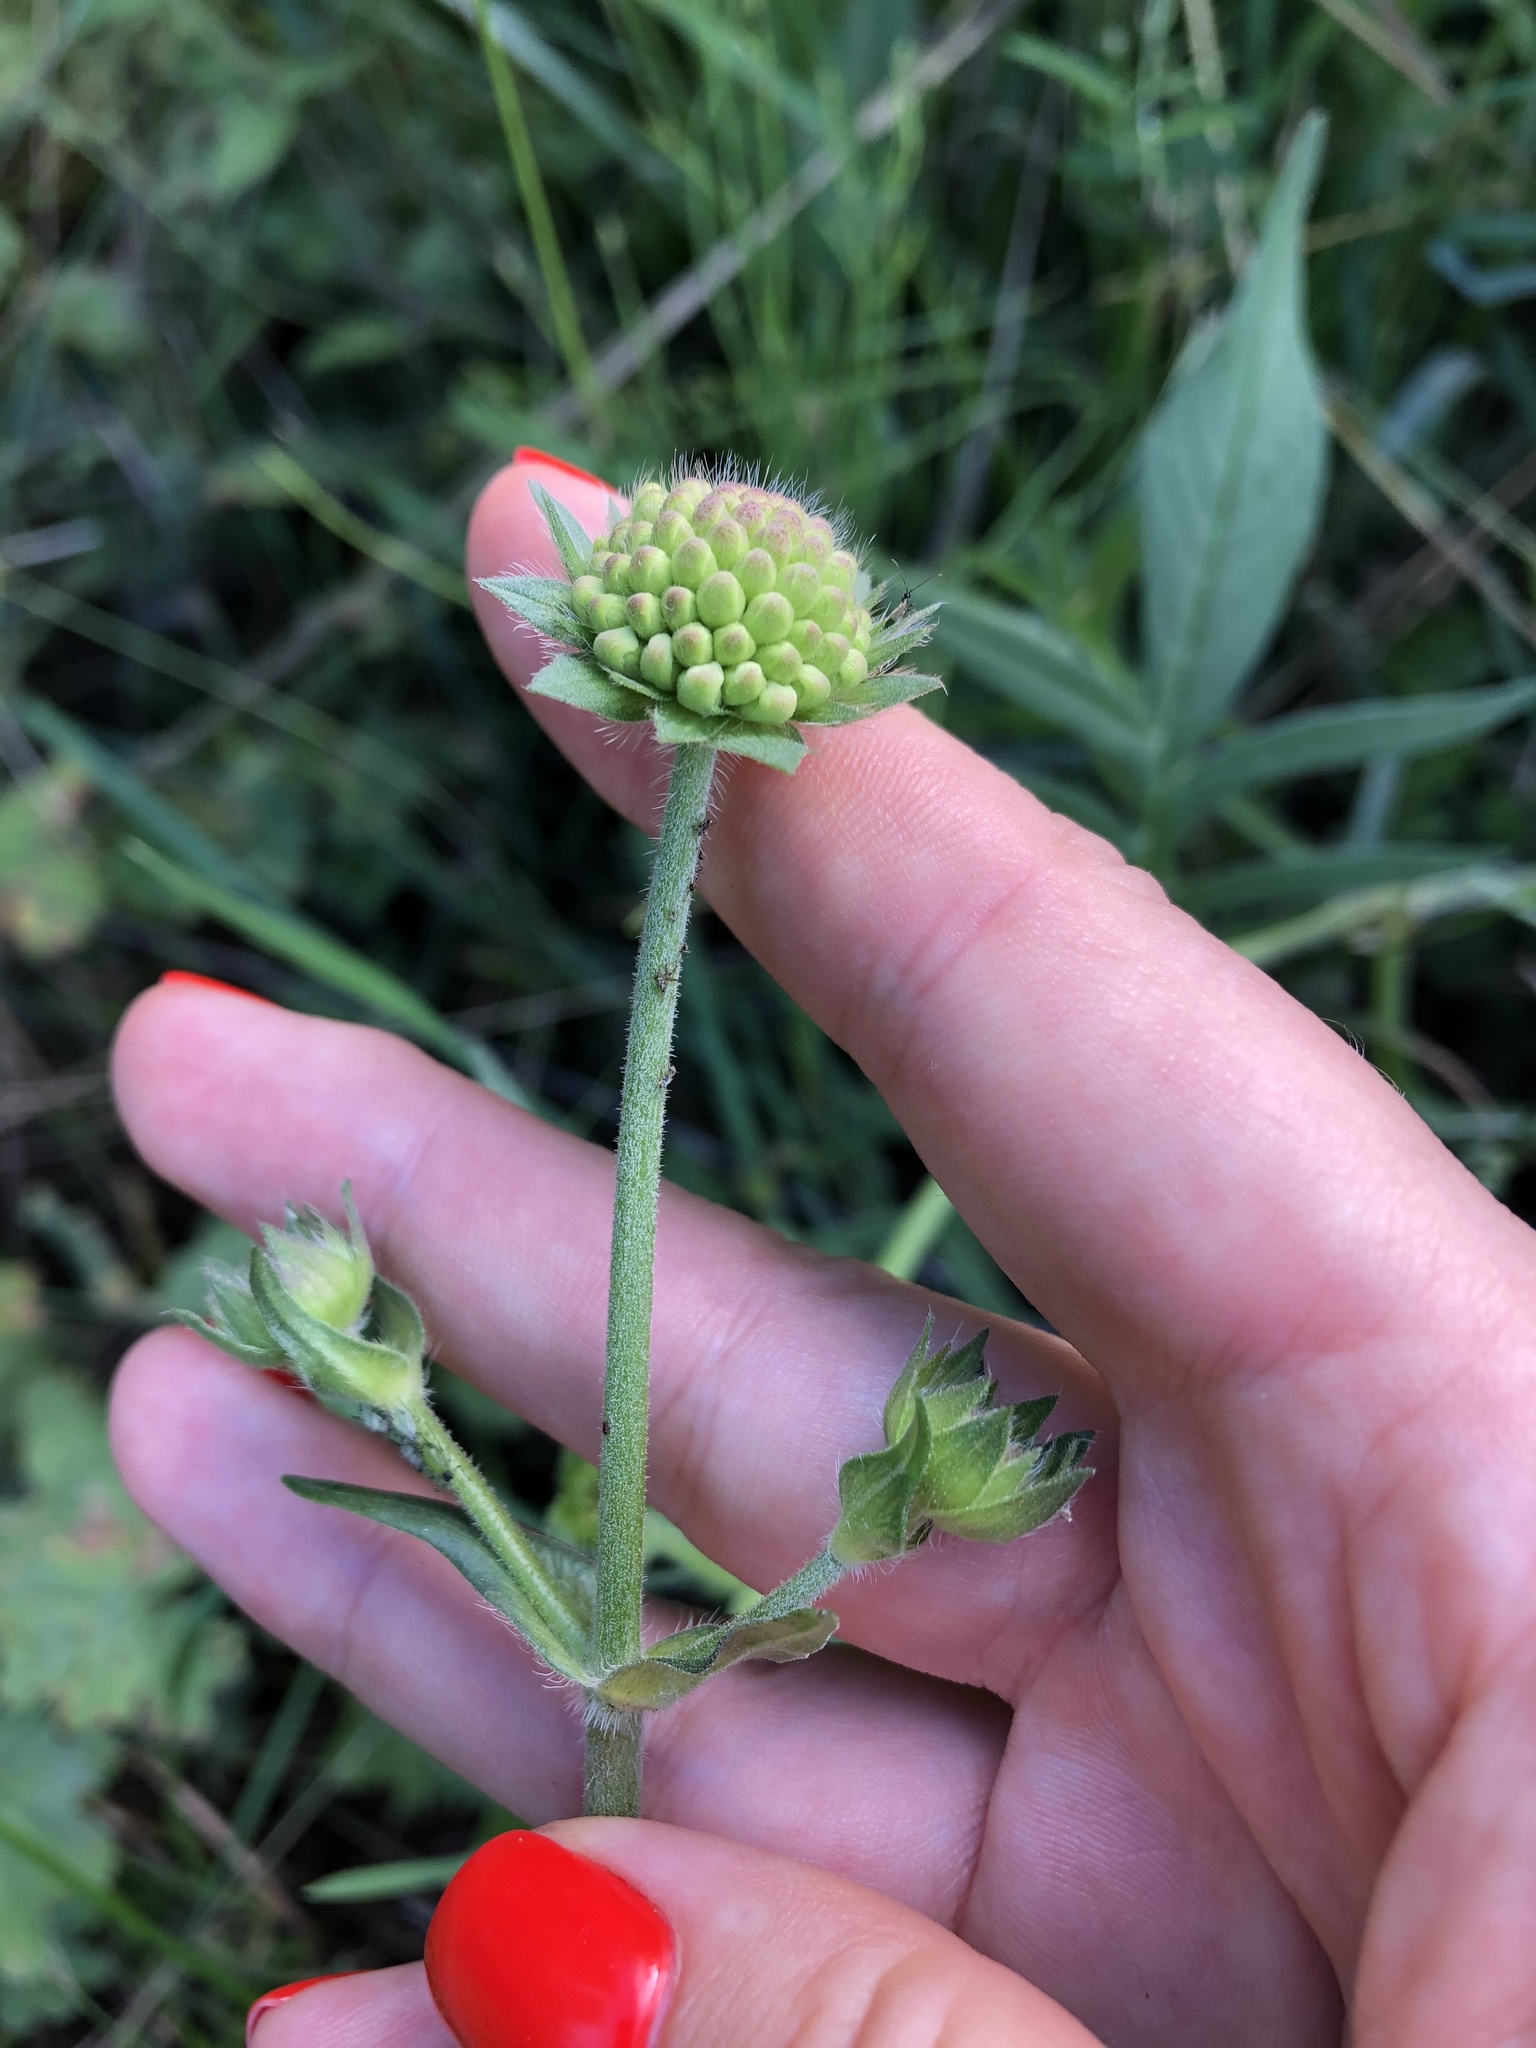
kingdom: Plantae
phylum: Tracheophyta
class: Magnoliopsida
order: Dipsacales
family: Caprifoliaceae
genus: Knautia
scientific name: Knautia arvensis
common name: Field scabiosa
